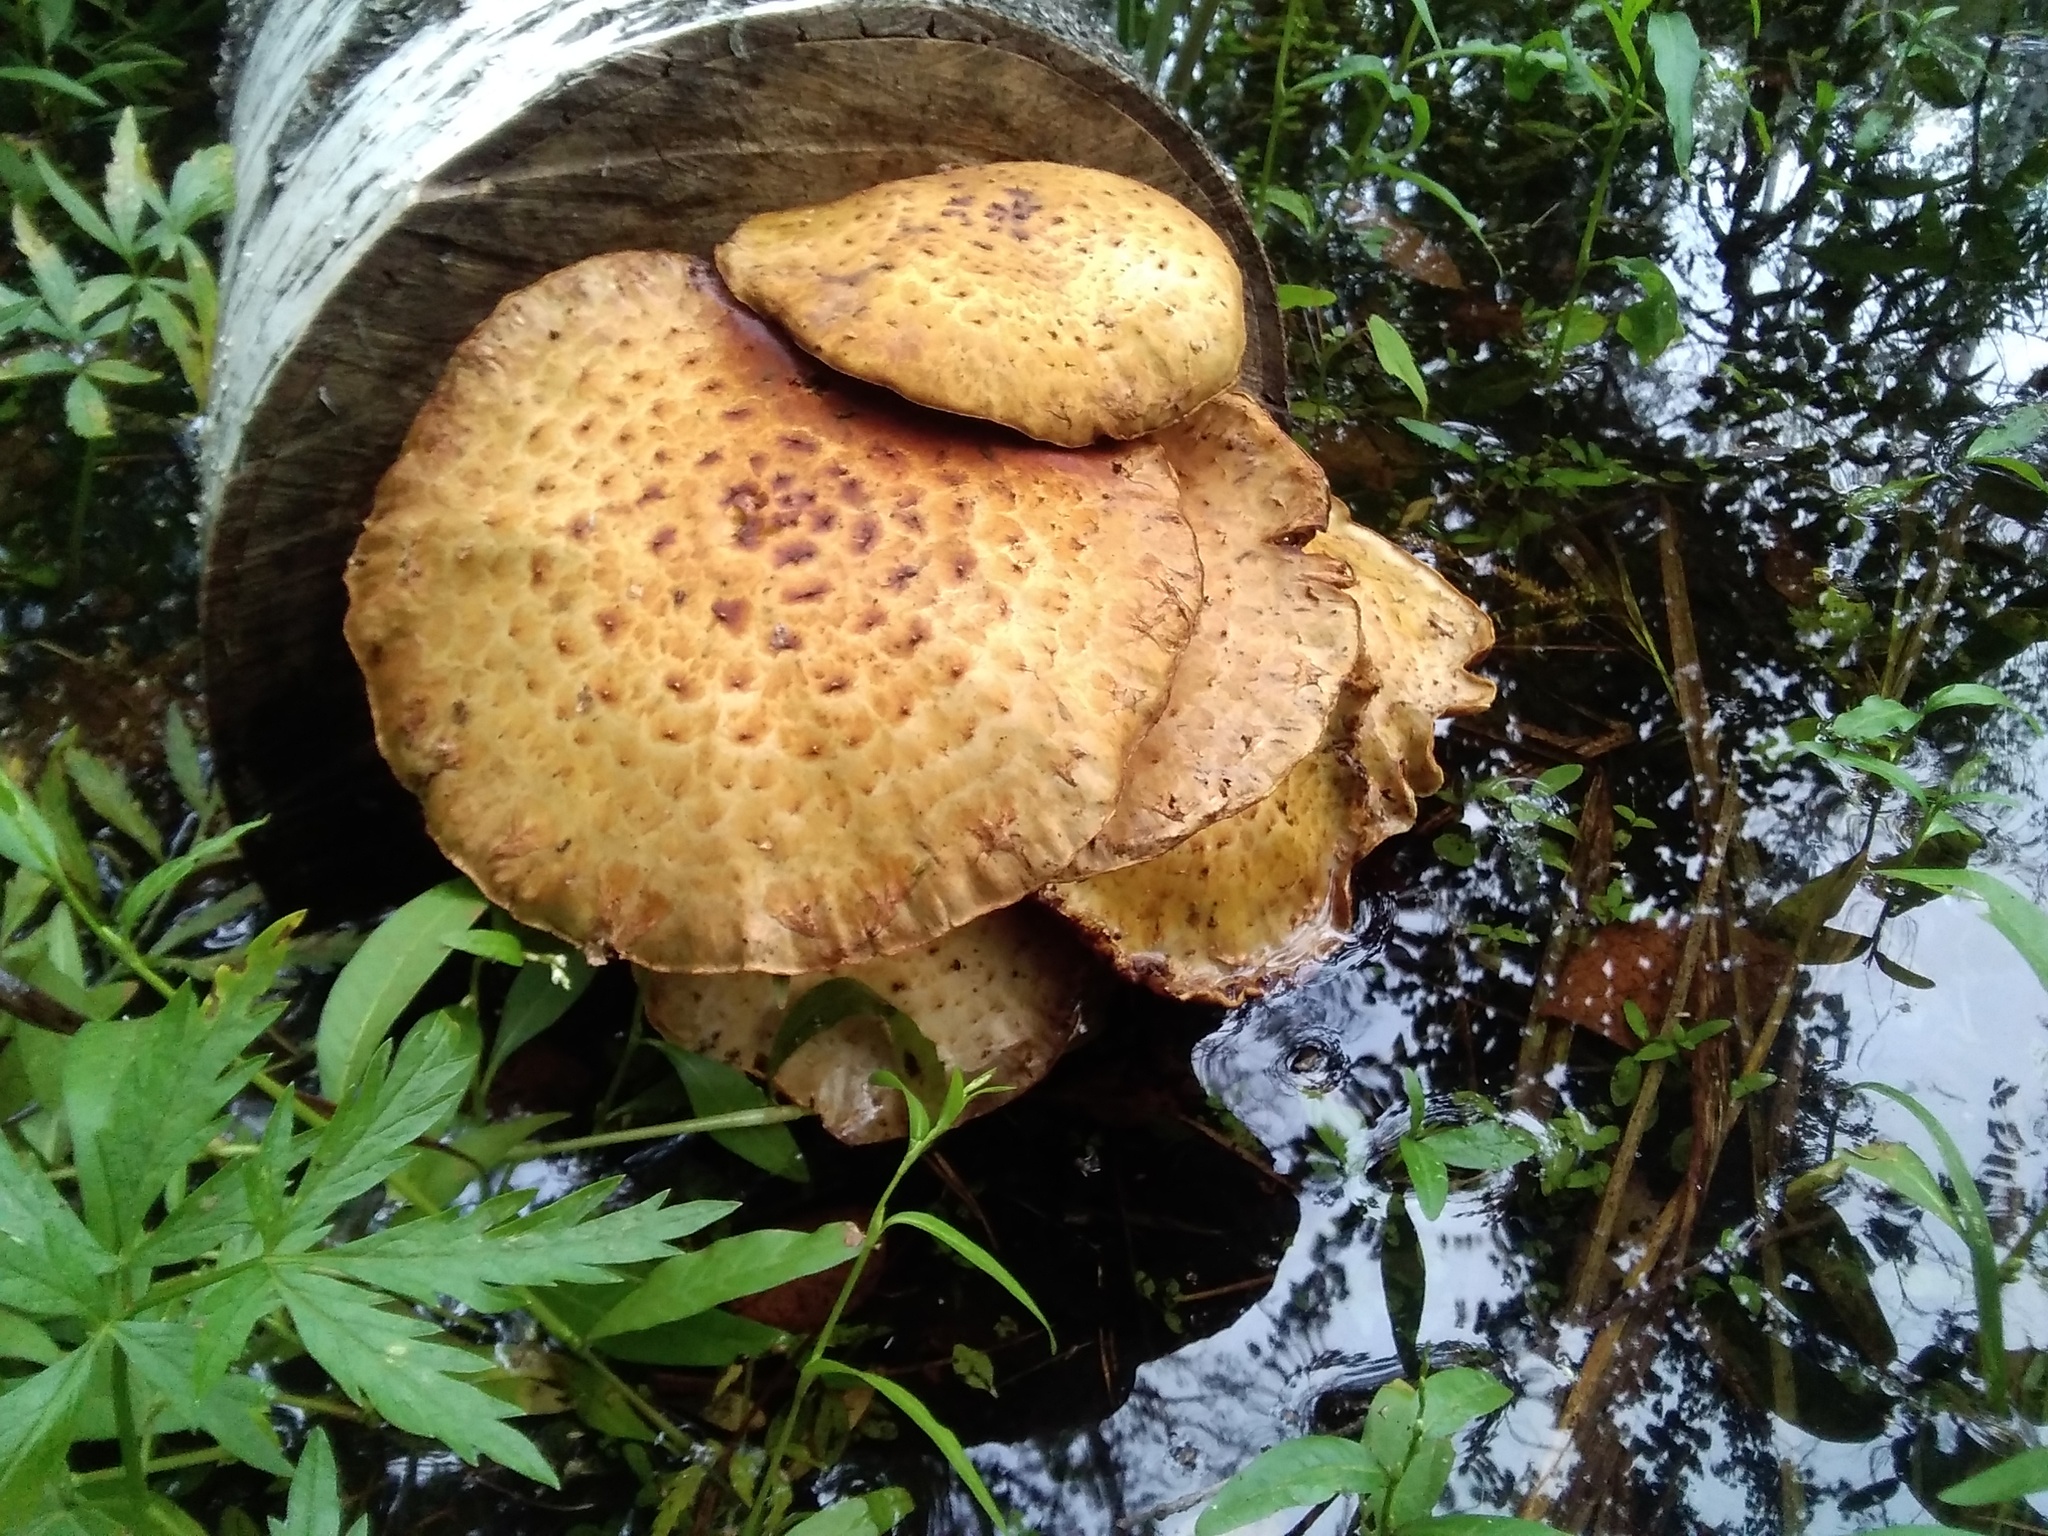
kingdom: Fungi
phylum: Basidiomycota
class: Agaricomycetes
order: Agaricales
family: Strophariaceae
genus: Pholiota
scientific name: Pholiota aurivella
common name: Golden scalycap
